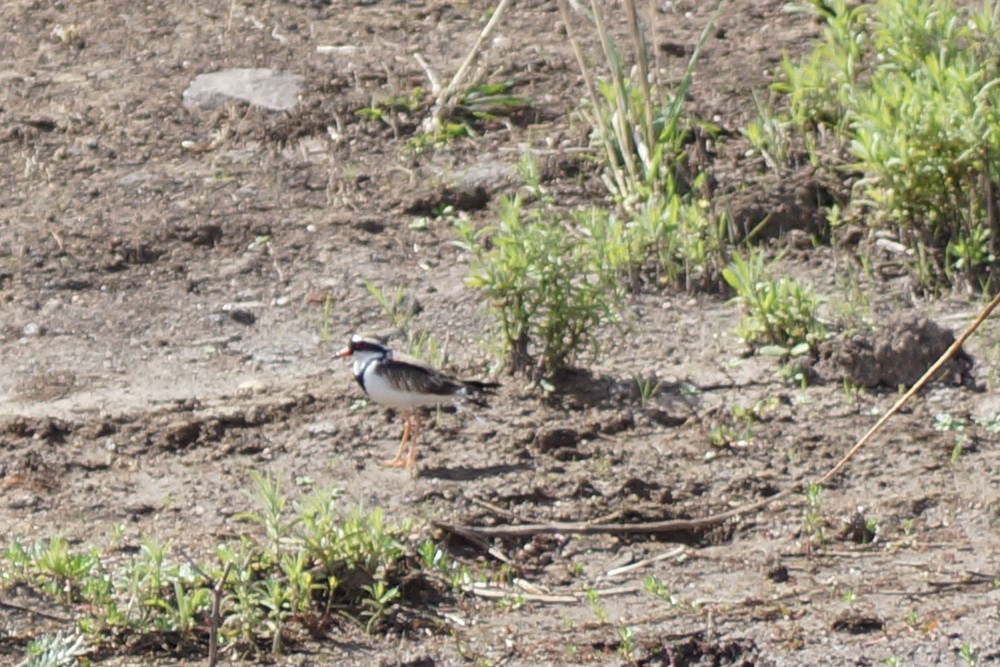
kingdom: Animalia
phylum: Chordata
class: Aves
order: Charadriiformes
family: Charadriidae
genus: Elseyornis
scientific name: Elseyornis melanops
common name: Black-fronted dotterel
